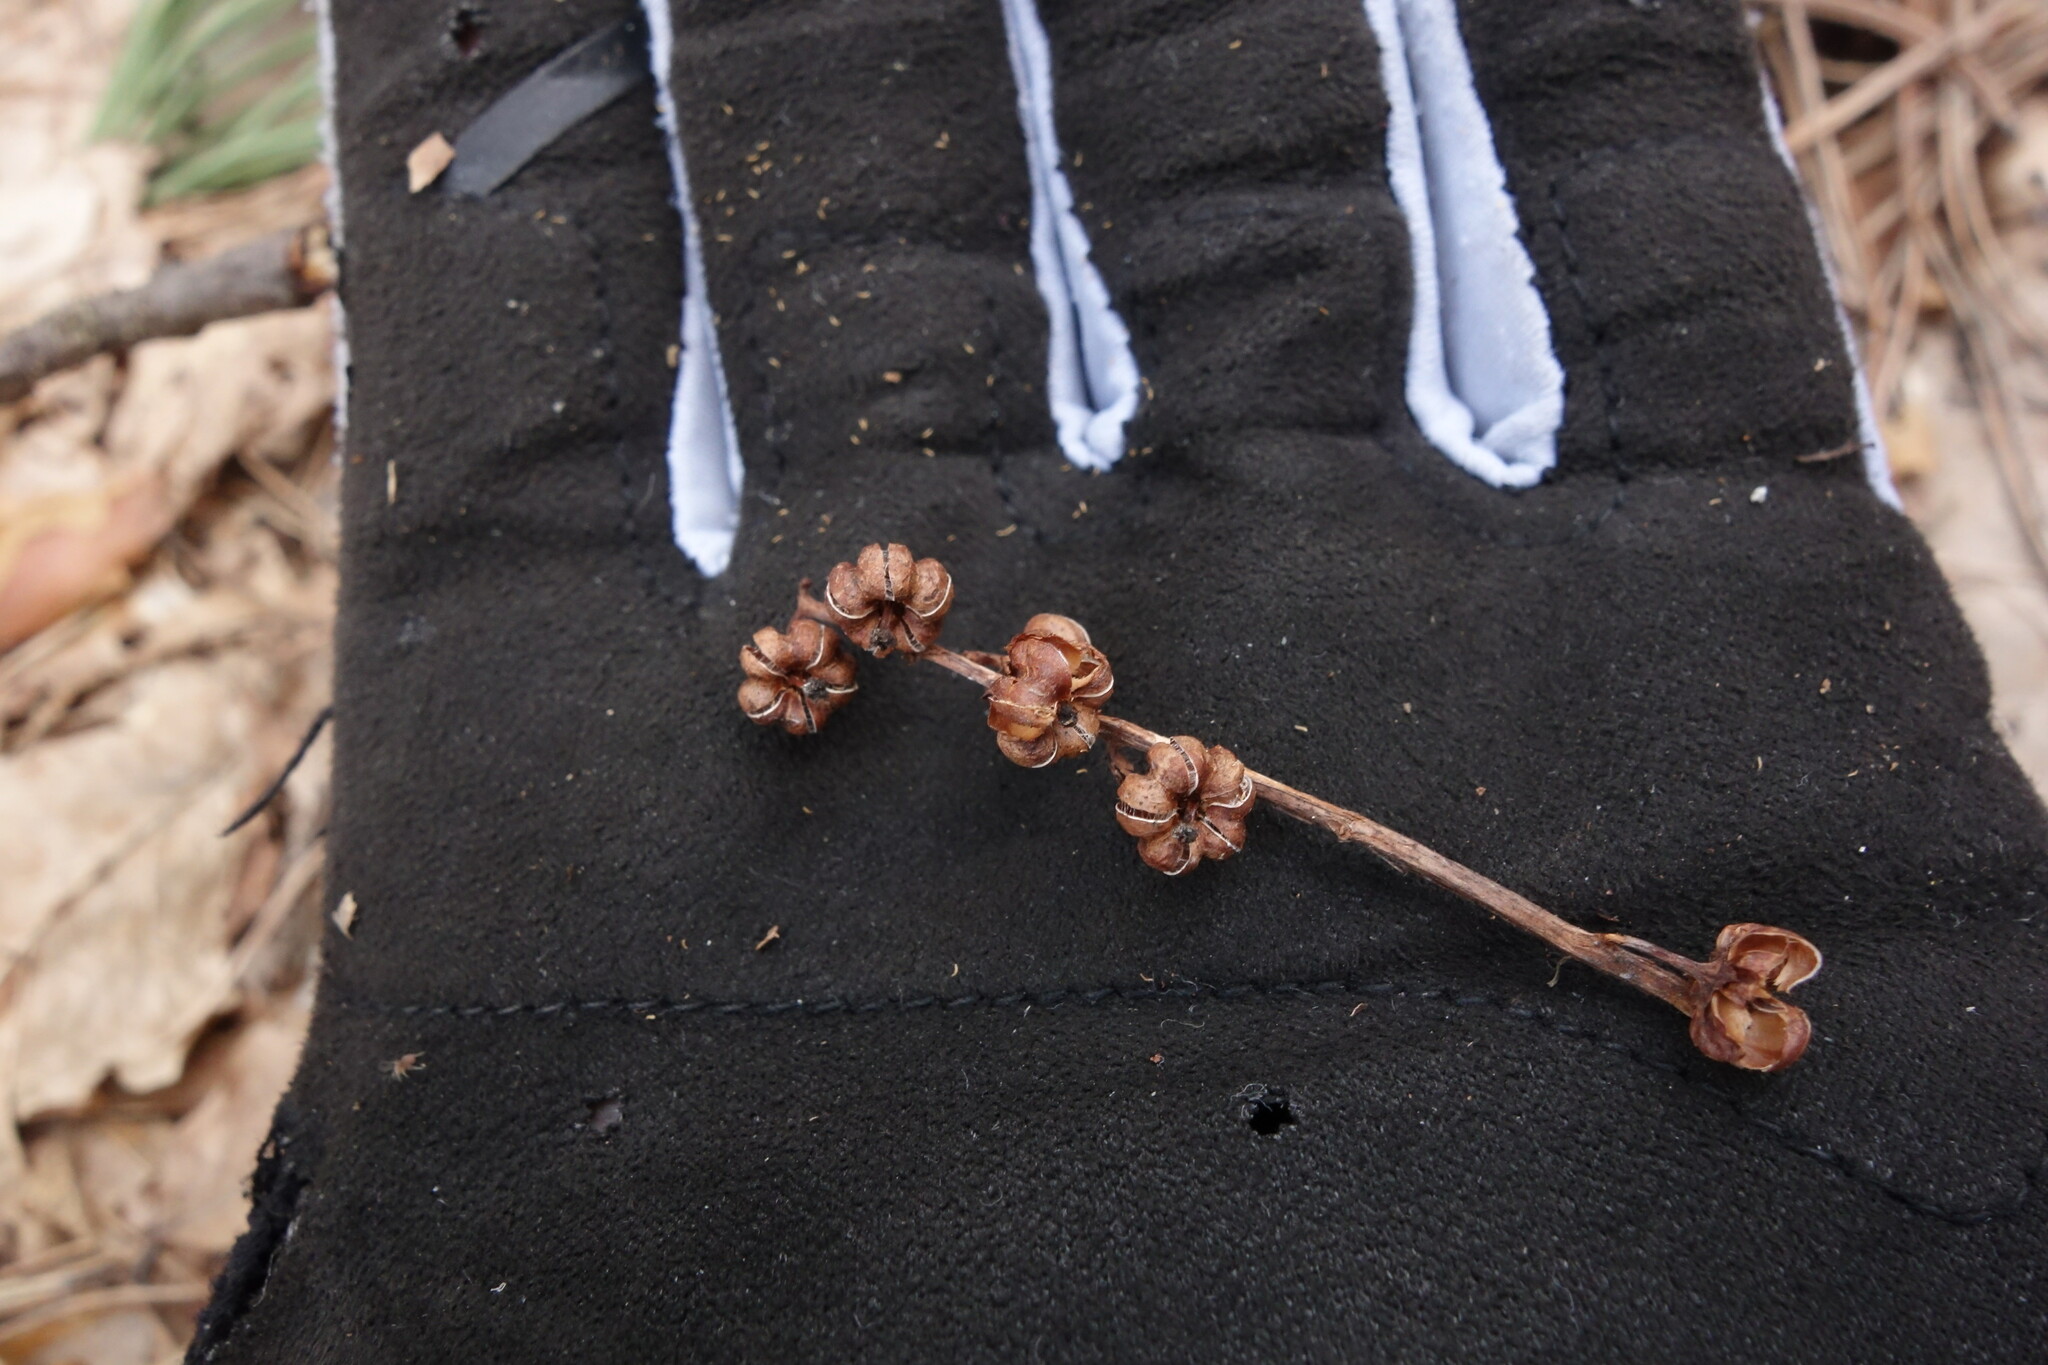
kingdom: Plantae
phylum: Tracheophyta
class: Magnoliopsida
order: Ericales
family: Ericaceae
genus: Pyrola
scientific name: Pyrola minor
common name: Common wintergreen
